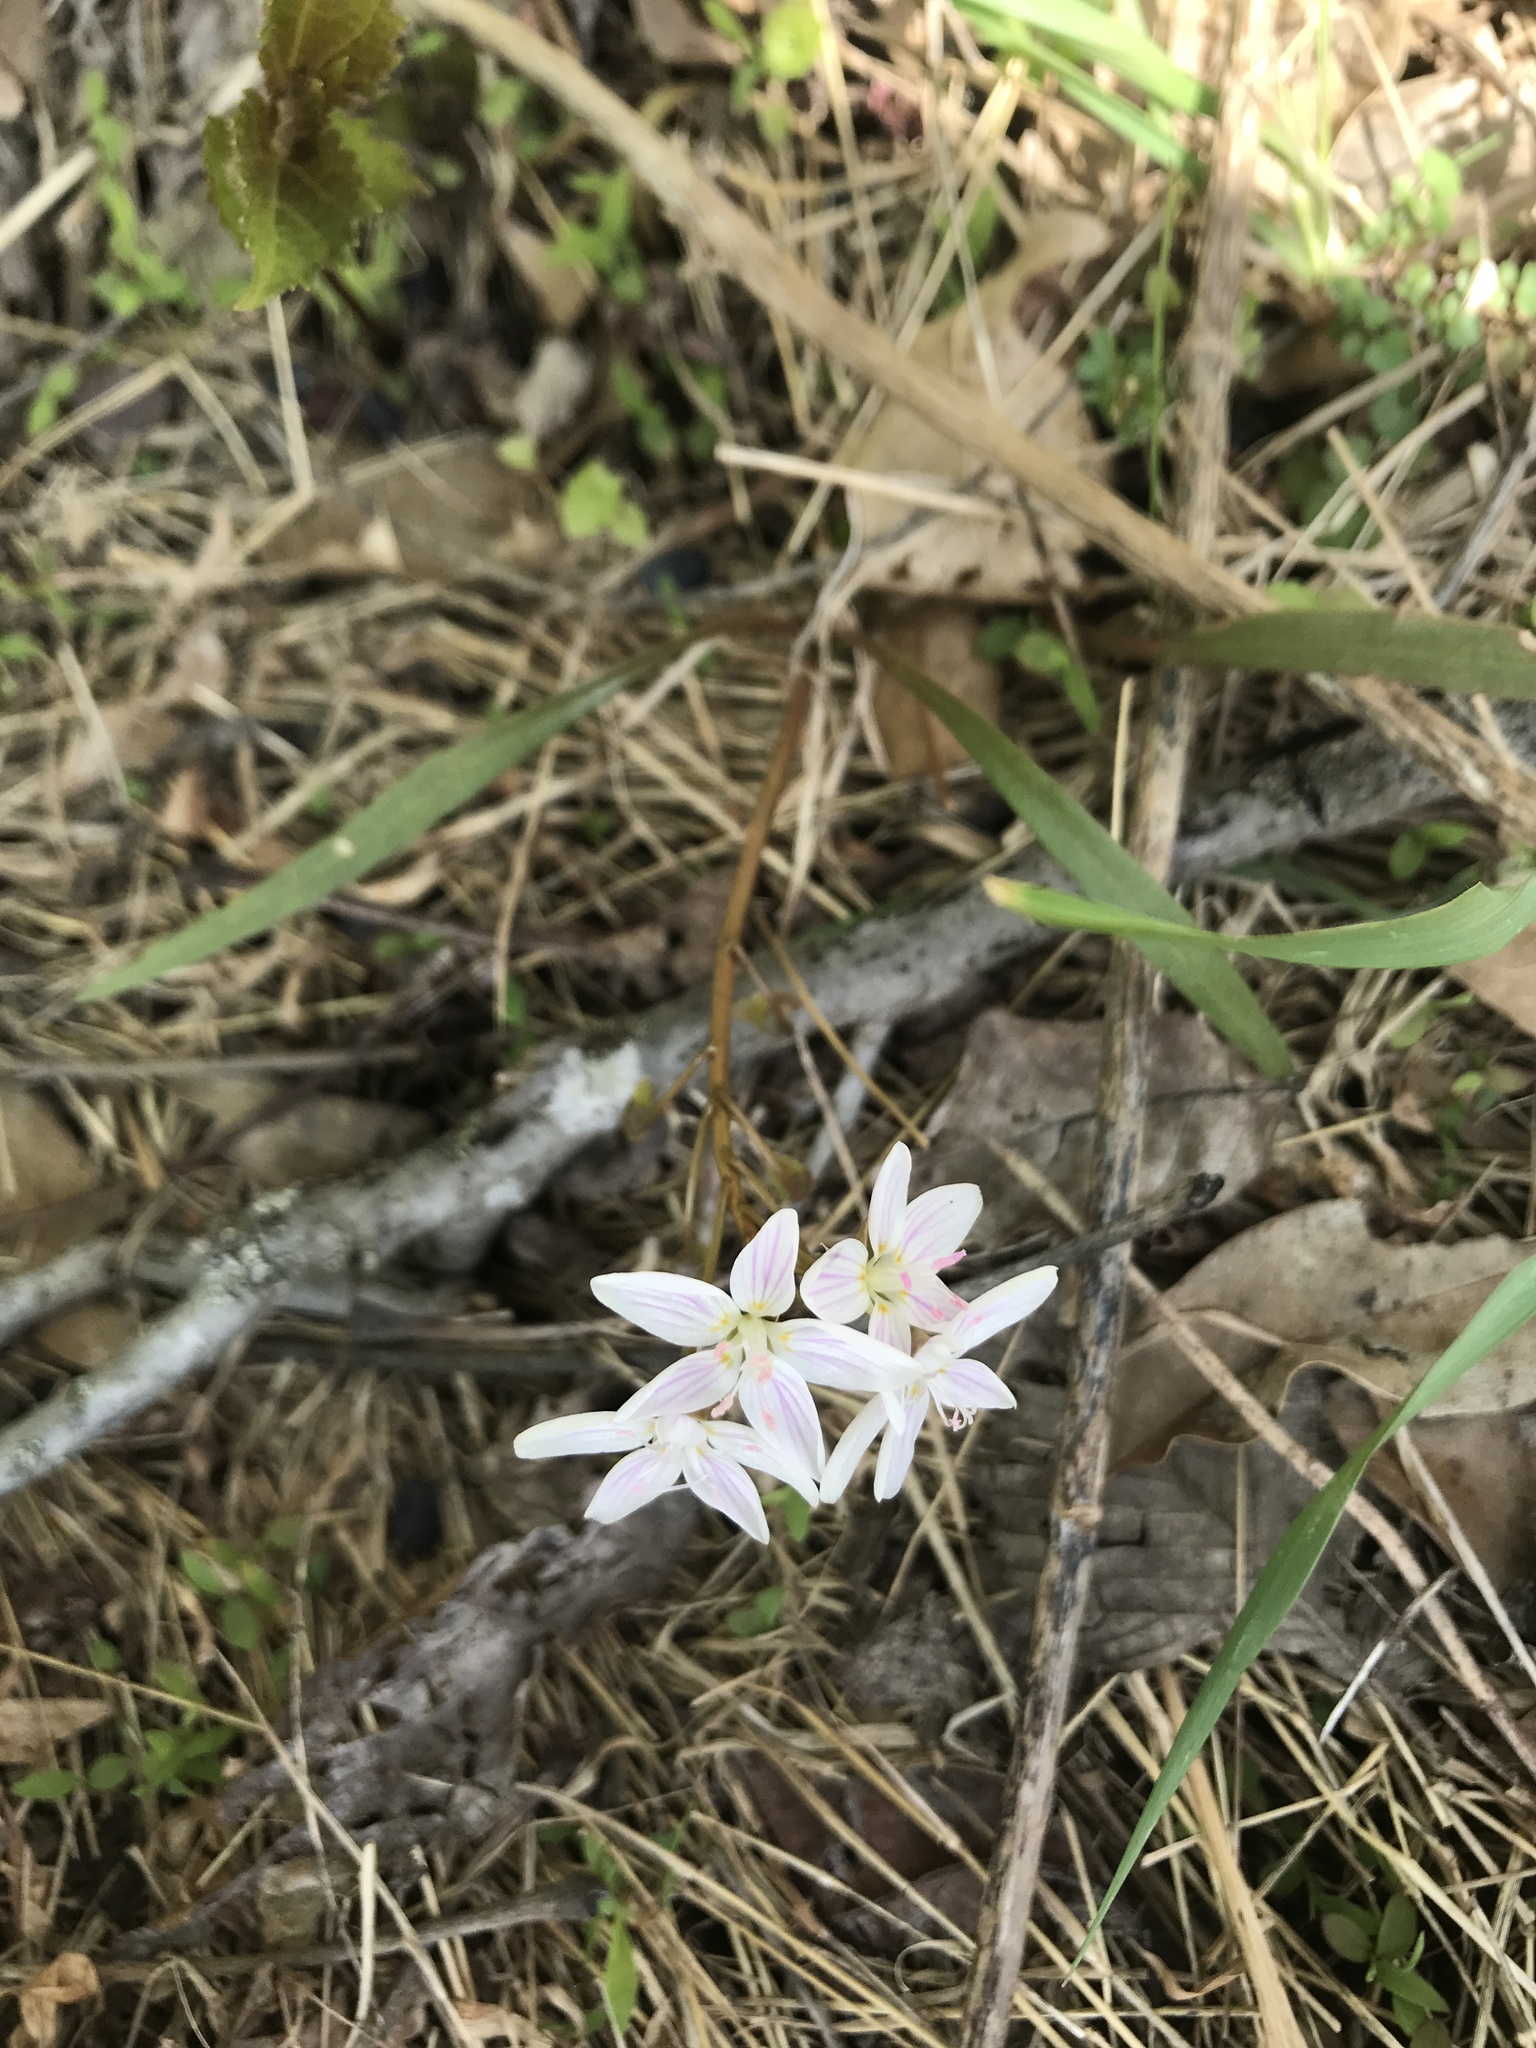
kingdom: Plantae
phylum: Tracheophyta
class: Magnoliopsida
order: Caryophyllales
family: Montiaceae
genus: Claytonia
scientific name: Claytonia virginica
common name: Virginia springbeauty
